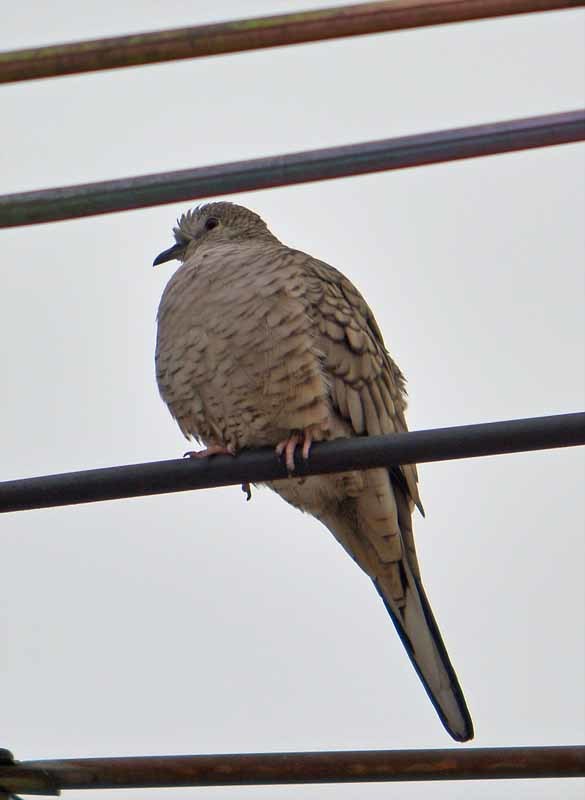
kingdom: Animalia
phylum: Chordata
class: Aves
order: Columbiformes
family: Columbidae
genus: Columbina
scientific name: Columbina inca
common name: Inca dove
